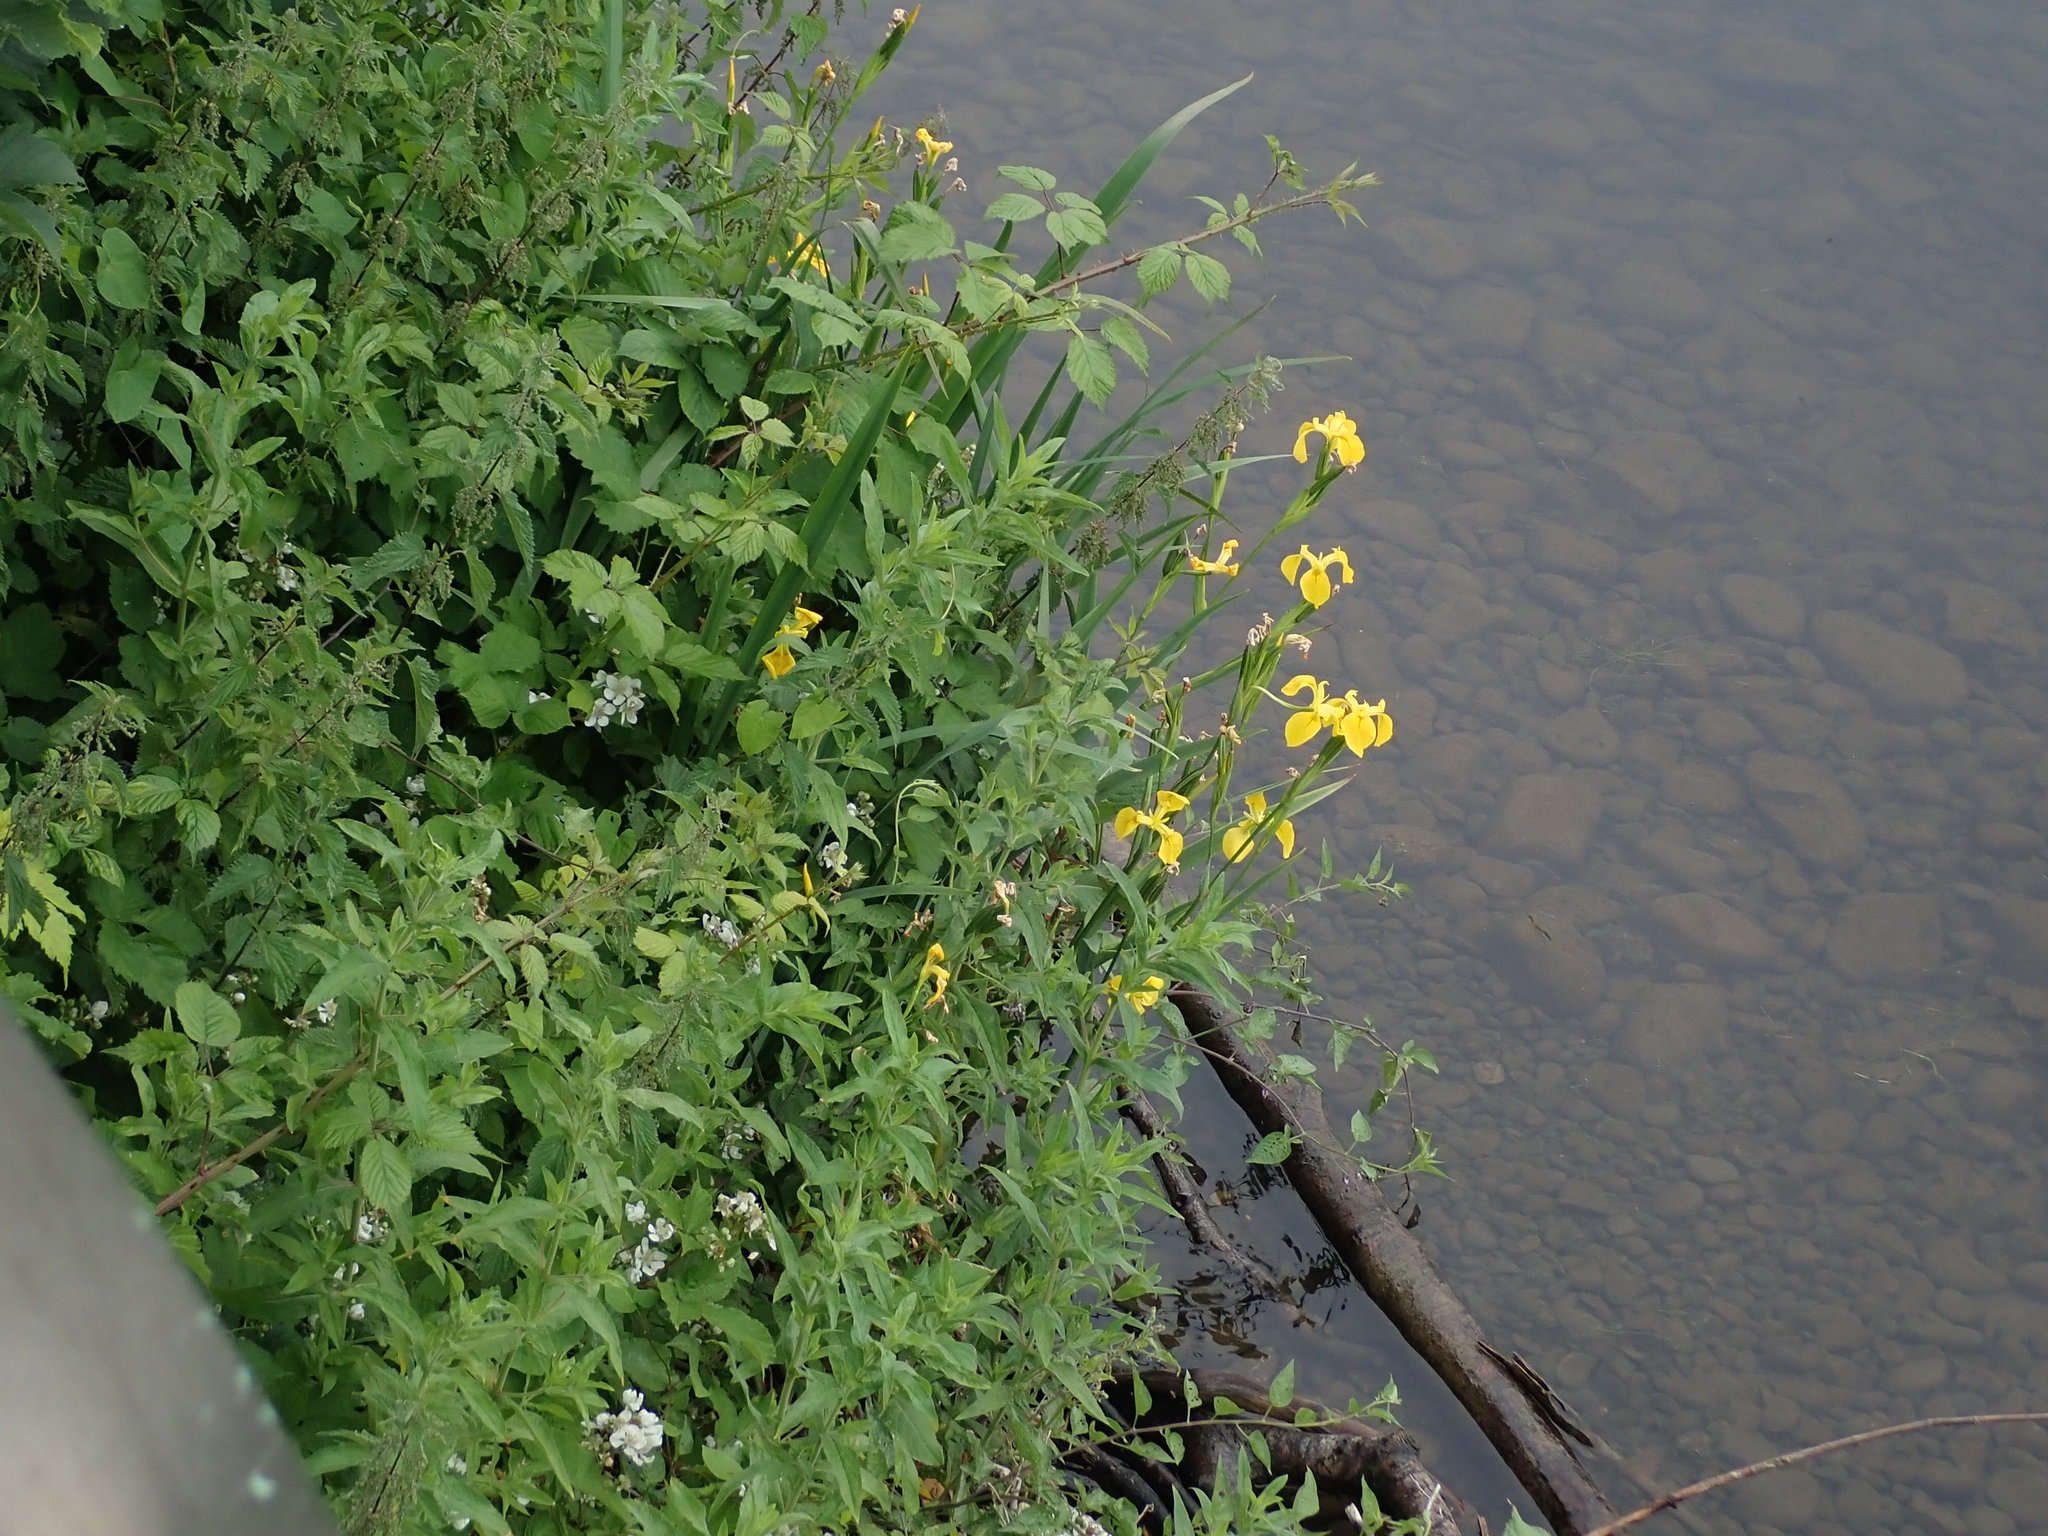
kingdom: Plantae
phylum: Tracheophyta
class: Liliopsida
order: Asparagales
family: Iridaceae
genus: Iris
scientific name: Iris pseudacorus
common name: Yellow flag
